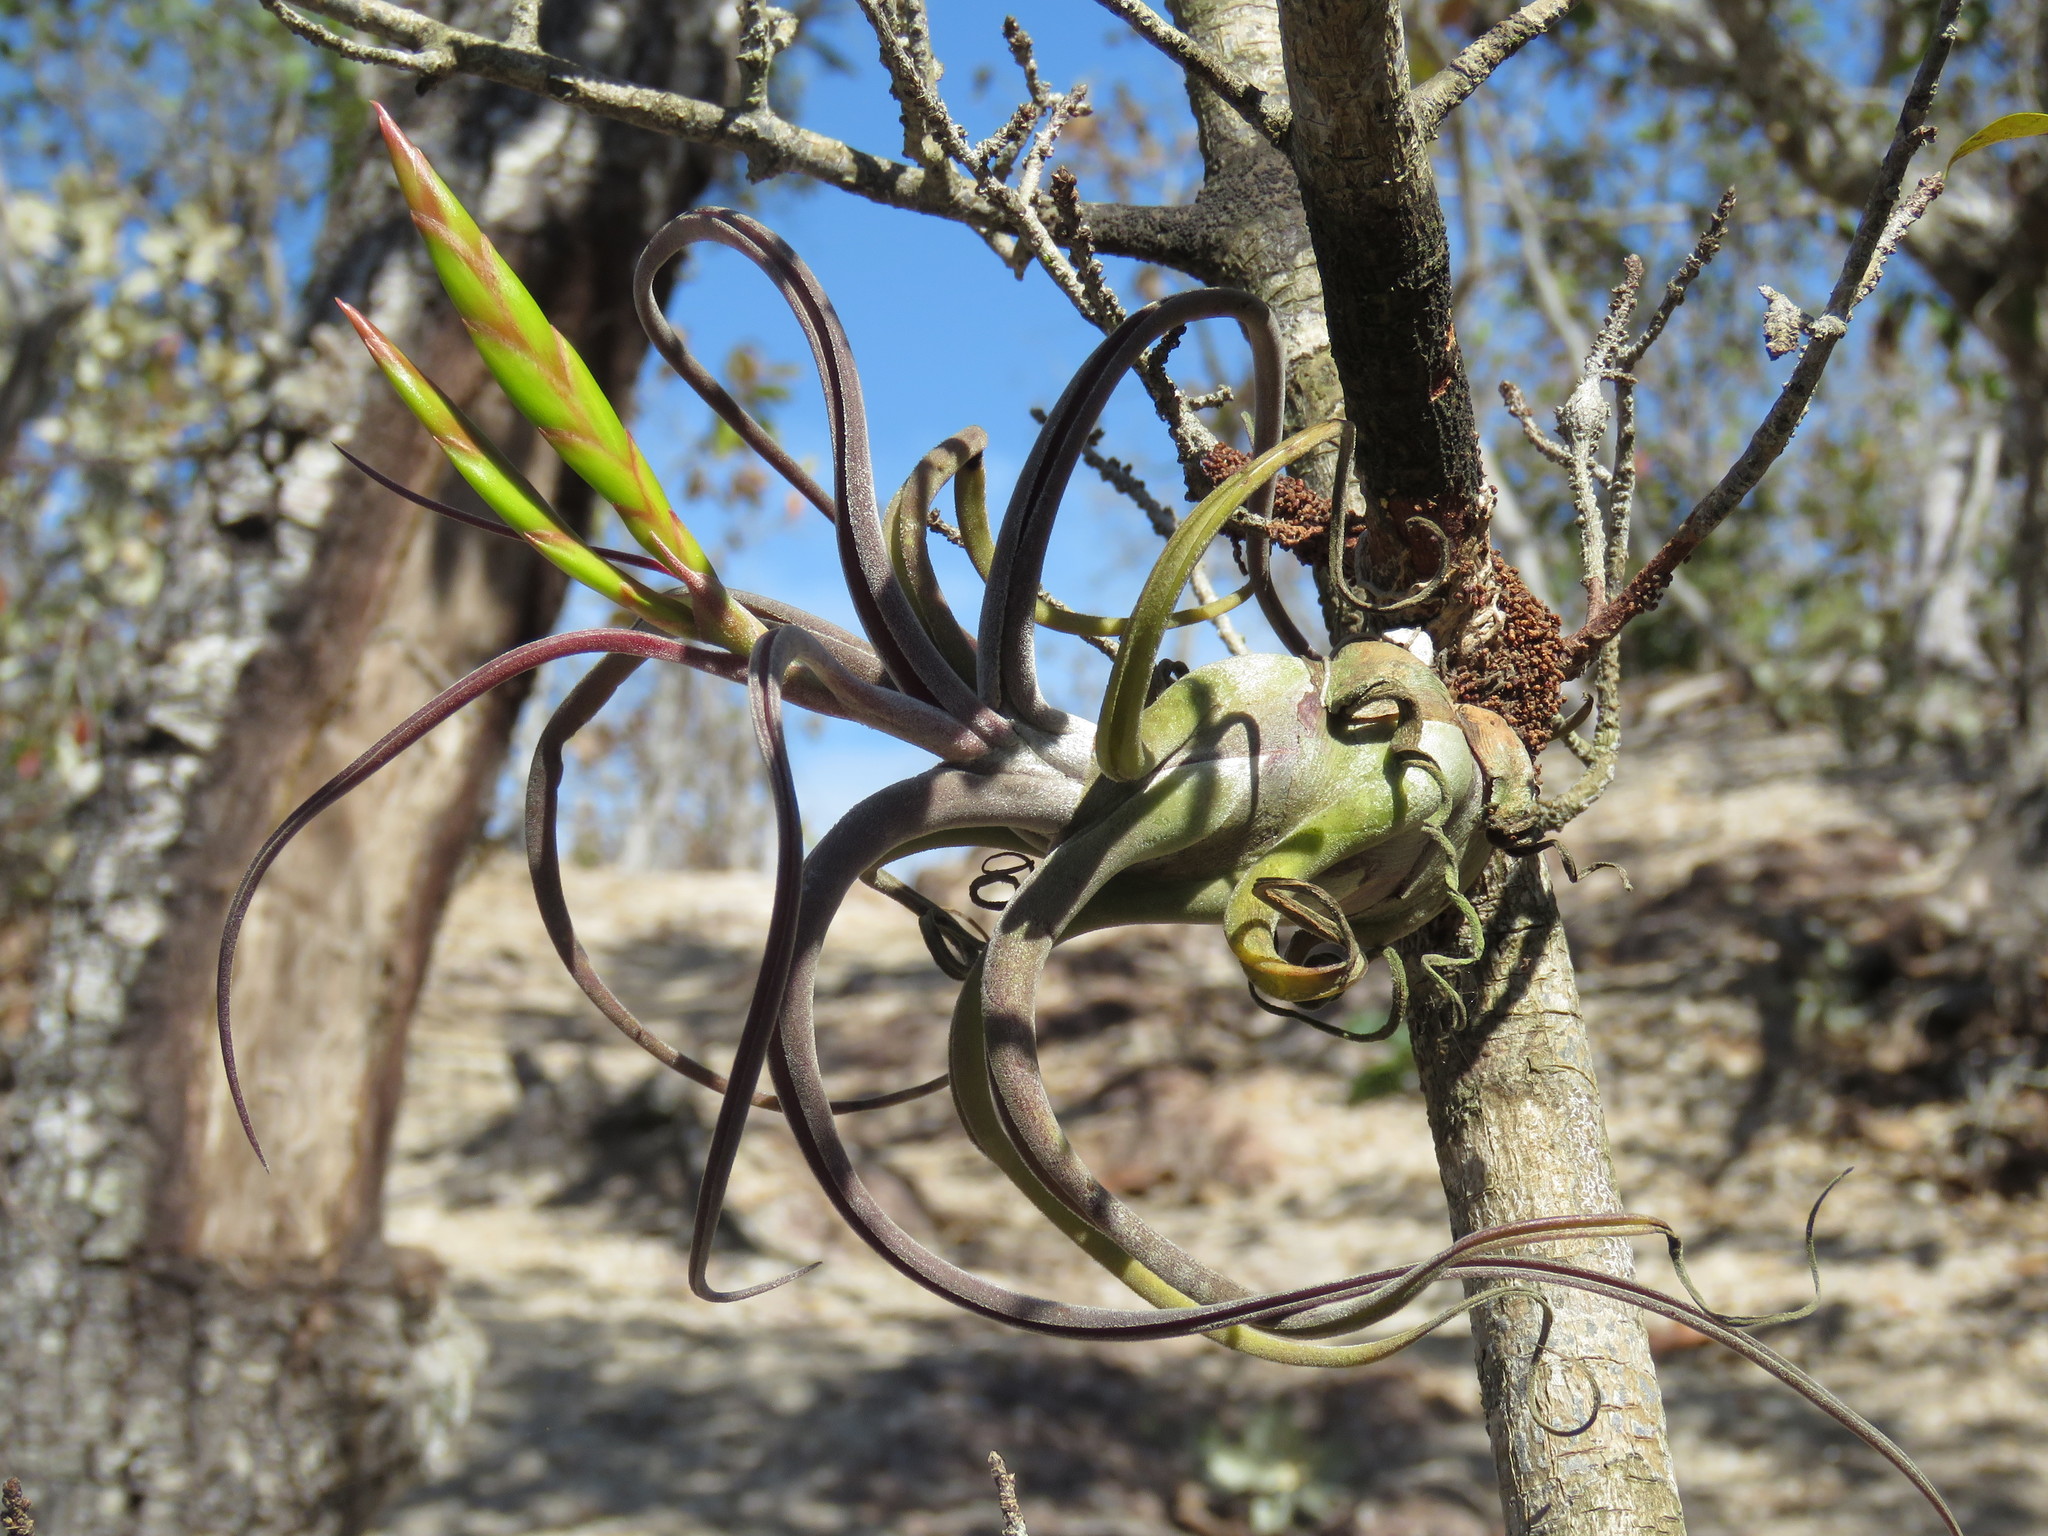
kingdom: Plantae
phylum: Tracheophyta
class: Liliopsida
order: Poales
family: Bromeliaceae
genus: Tillandsia
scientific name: Tillandsia caput-medusae
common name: Octopus plant
